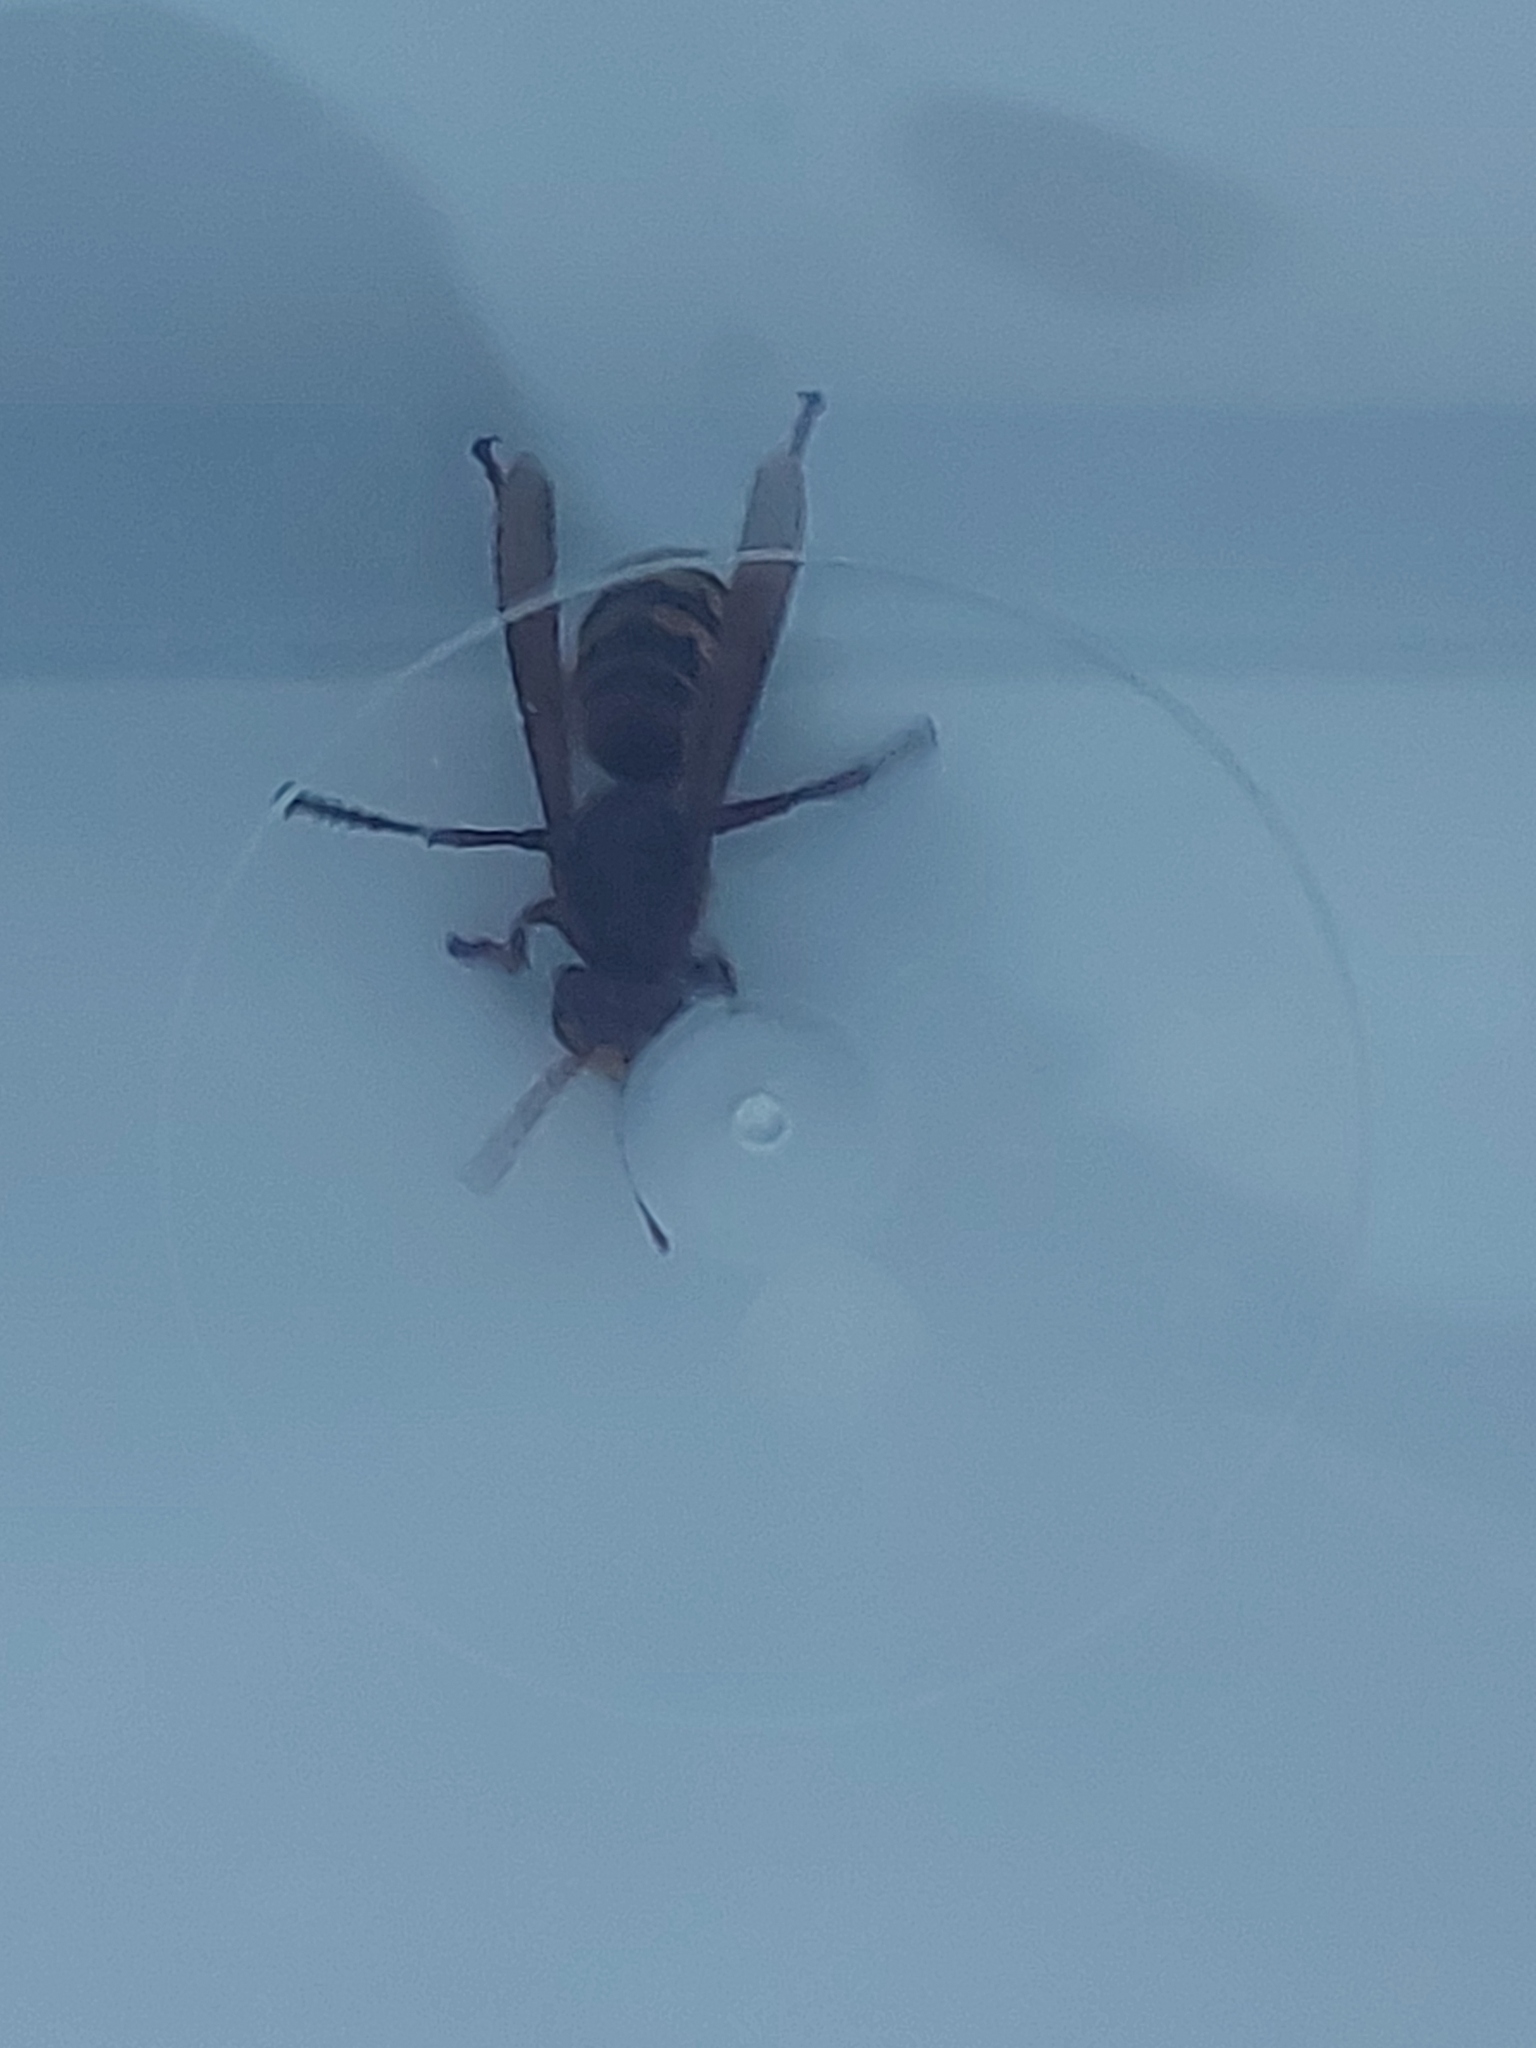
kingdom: Animalia
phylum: Arthropoda
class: Insecta
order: Hymenoptera
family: Vespidae
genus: Vespa
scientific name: Vespa crabro
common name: Hornet
